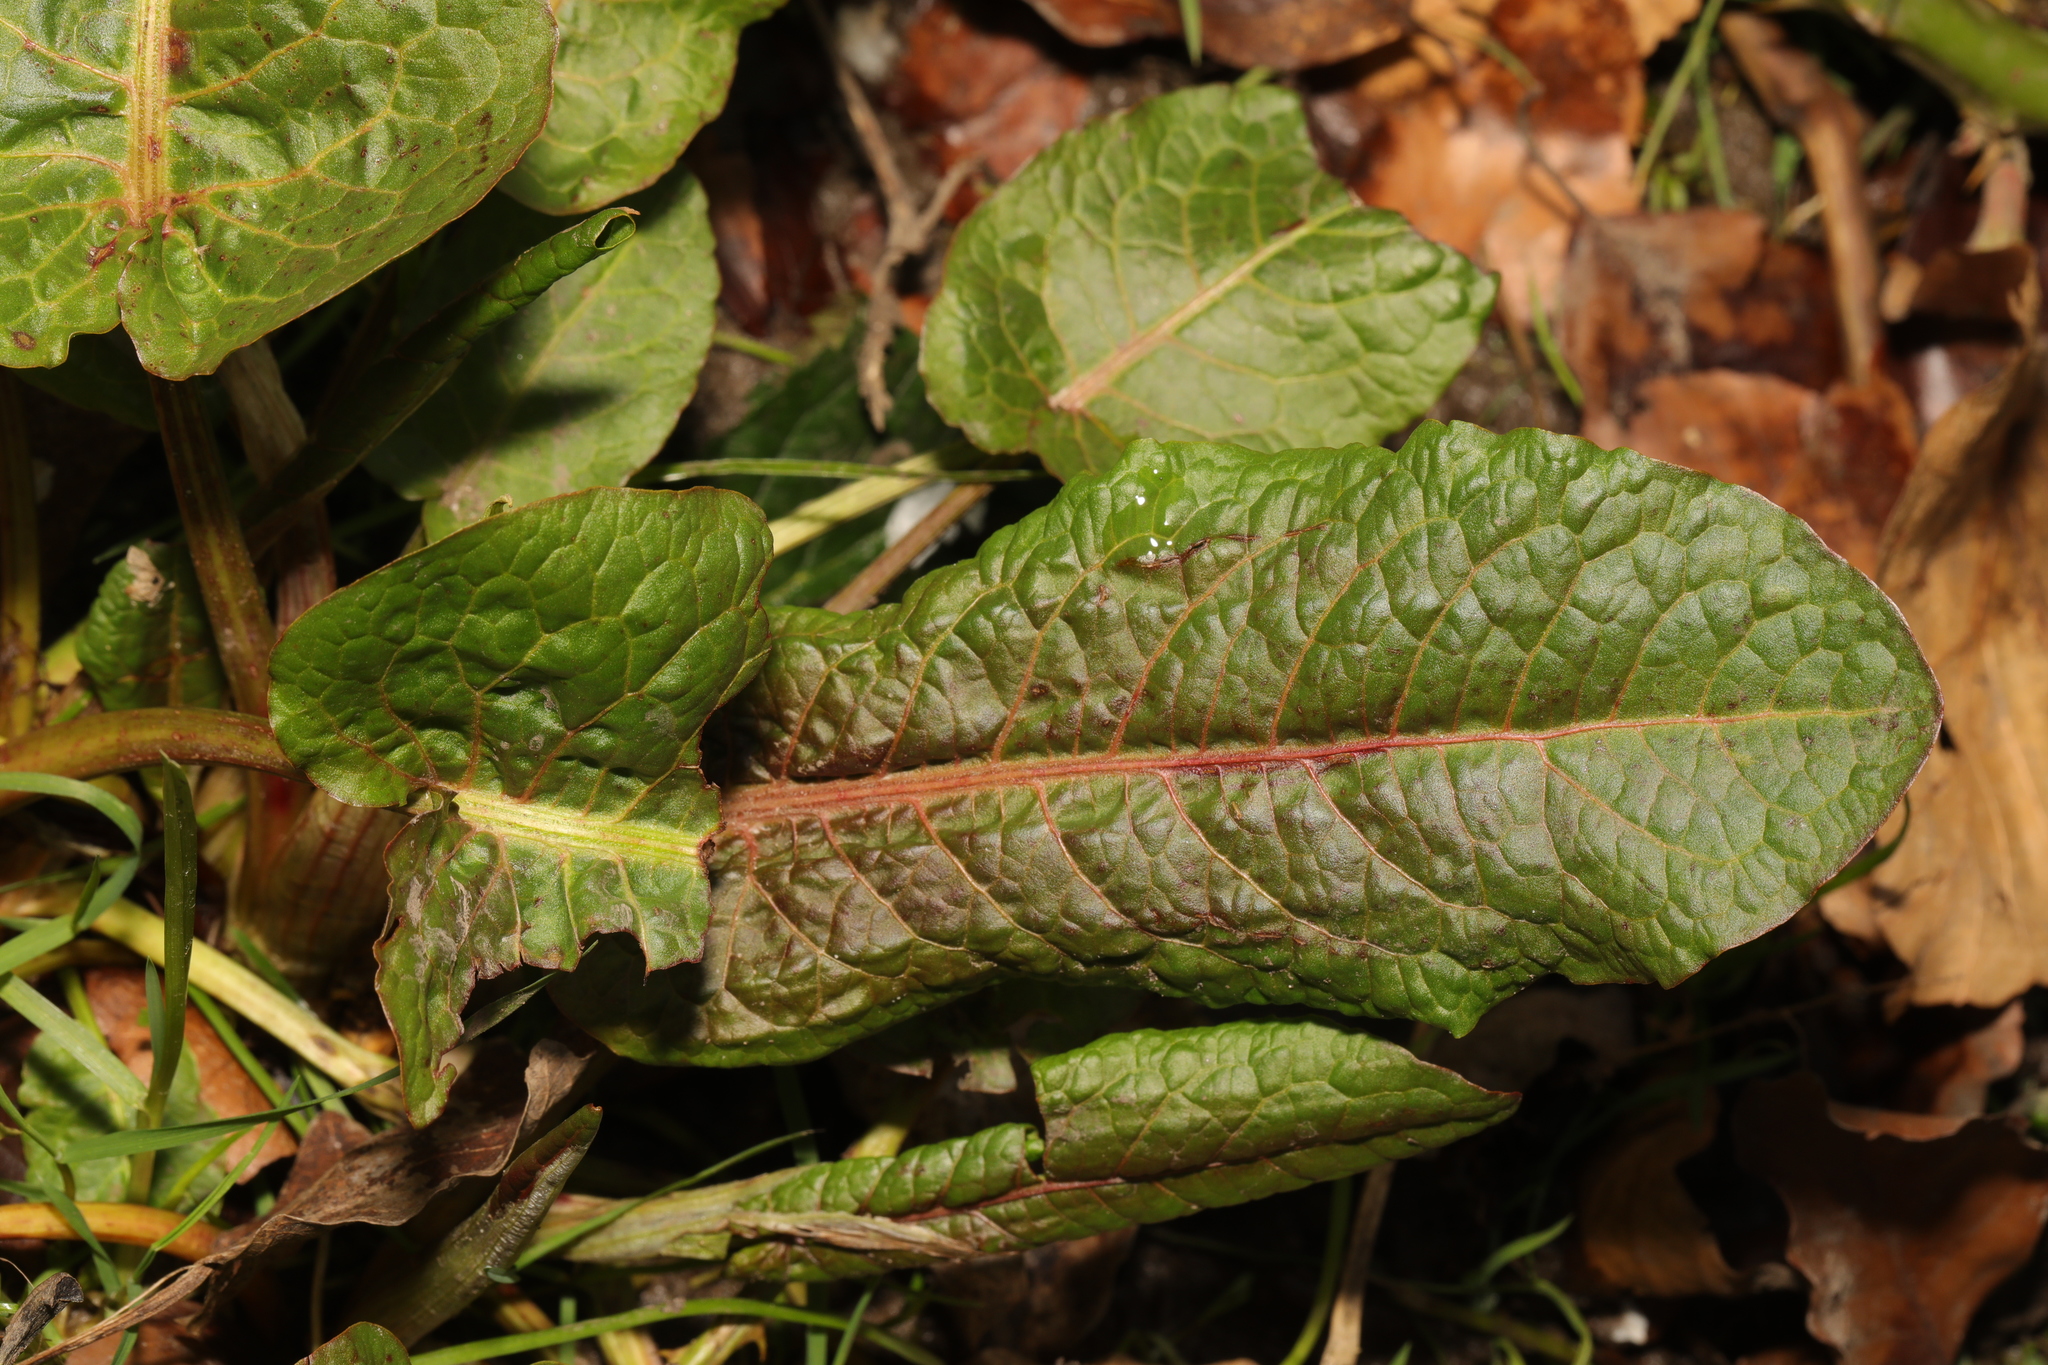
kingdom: Plantae
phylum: Tracheophyta
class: Magnoliopsida
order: Caryophyllales
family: Polygonaceae
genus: Rumex
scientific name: Rumex obtusifolius
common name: Bitter dock
